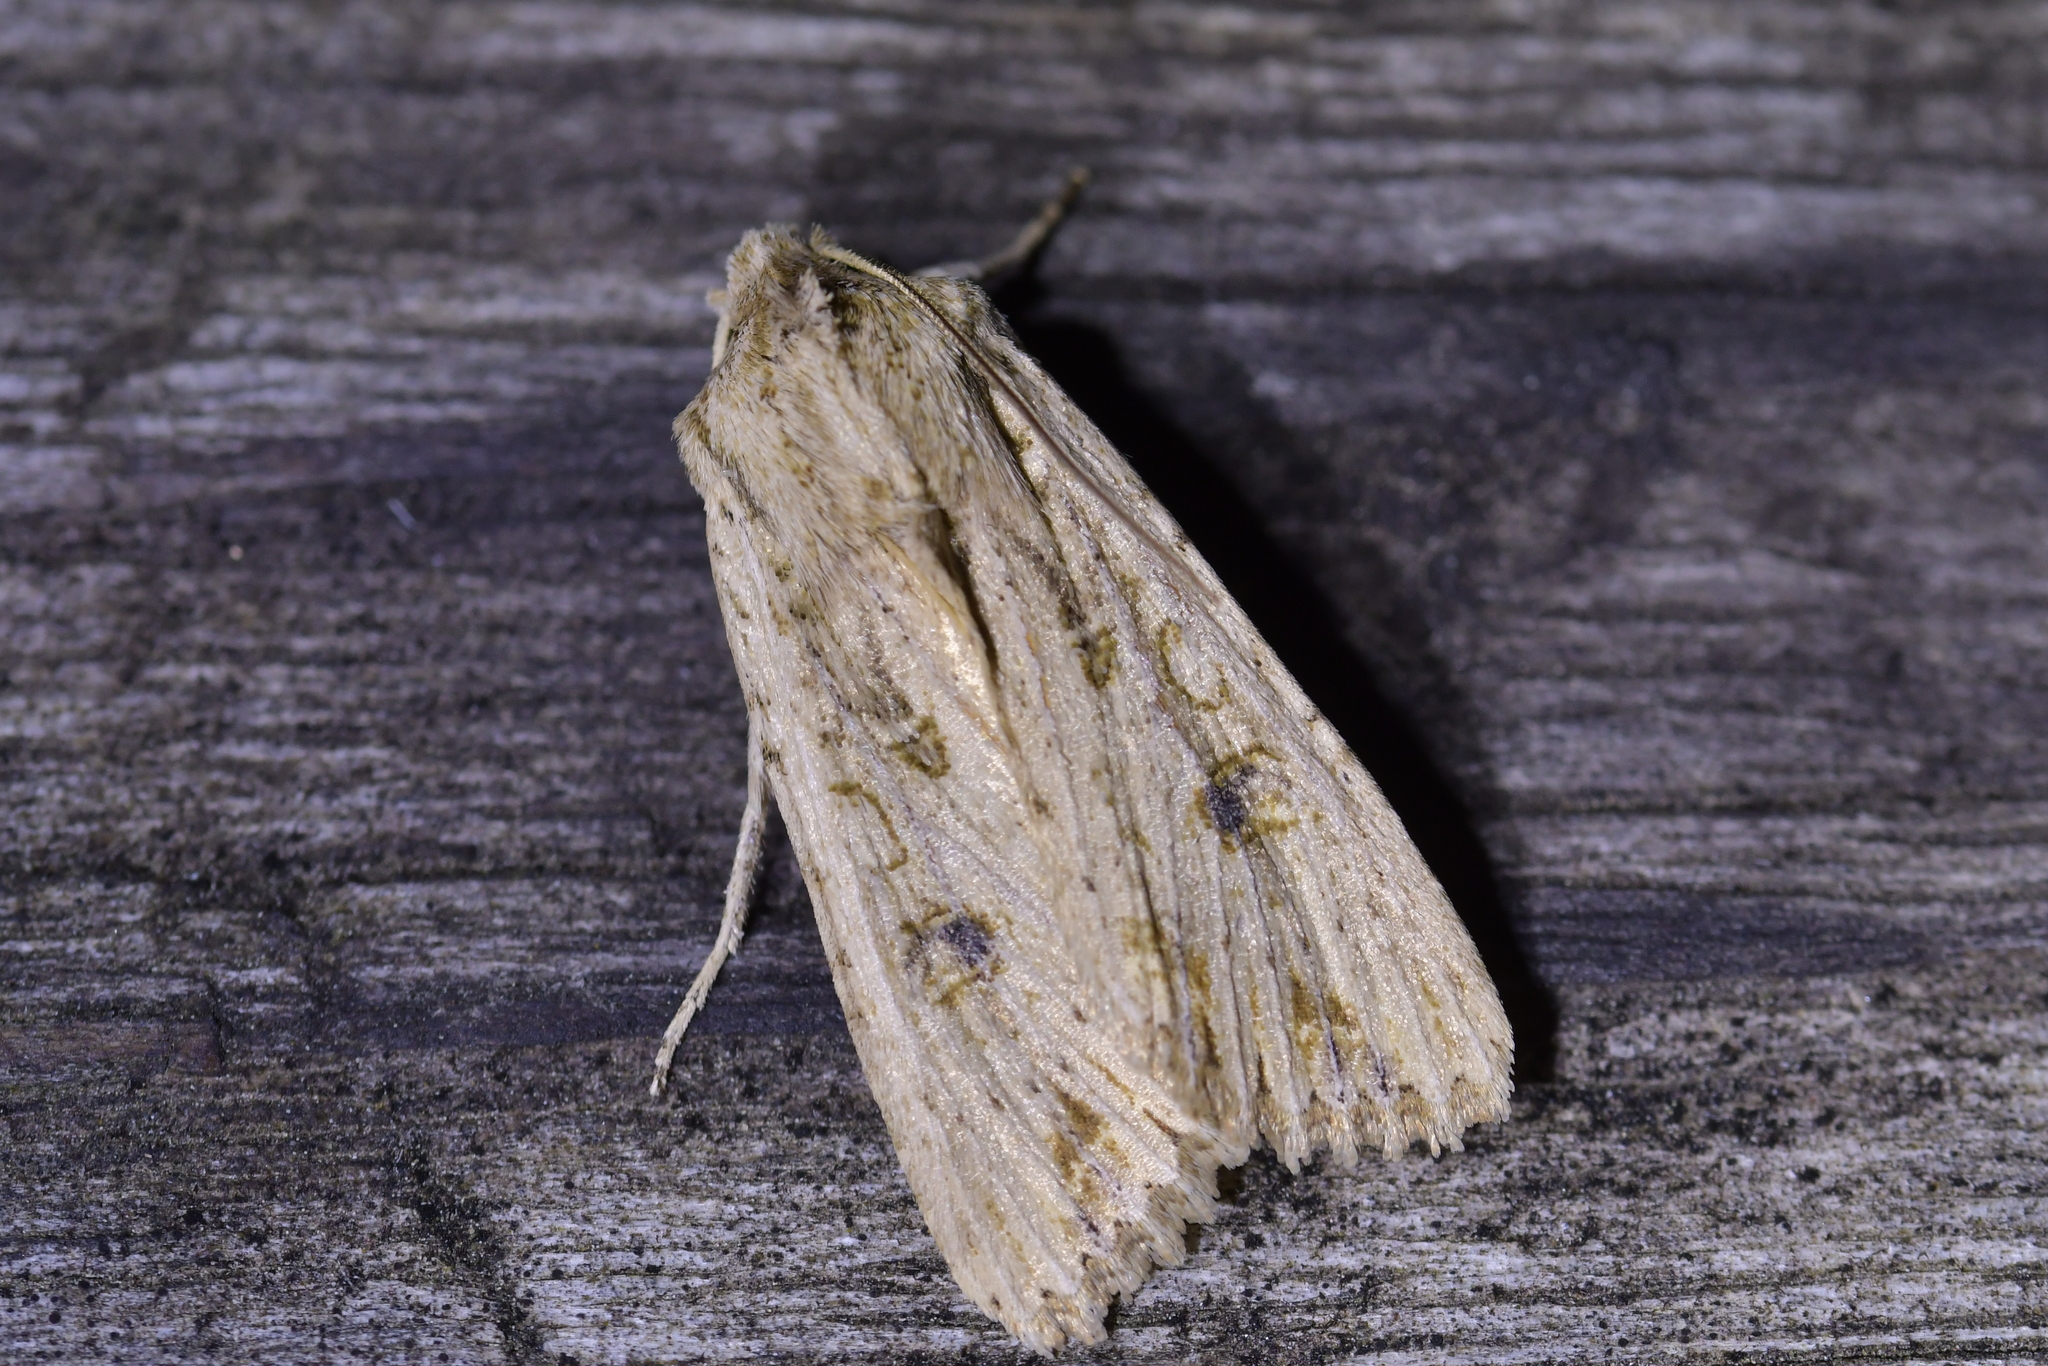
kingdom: Animalia
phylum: Arthropoda
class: Insecta
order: Lepidoptera
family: Noctuidae
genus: Ichneutica
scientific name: Ichneutica lignana
